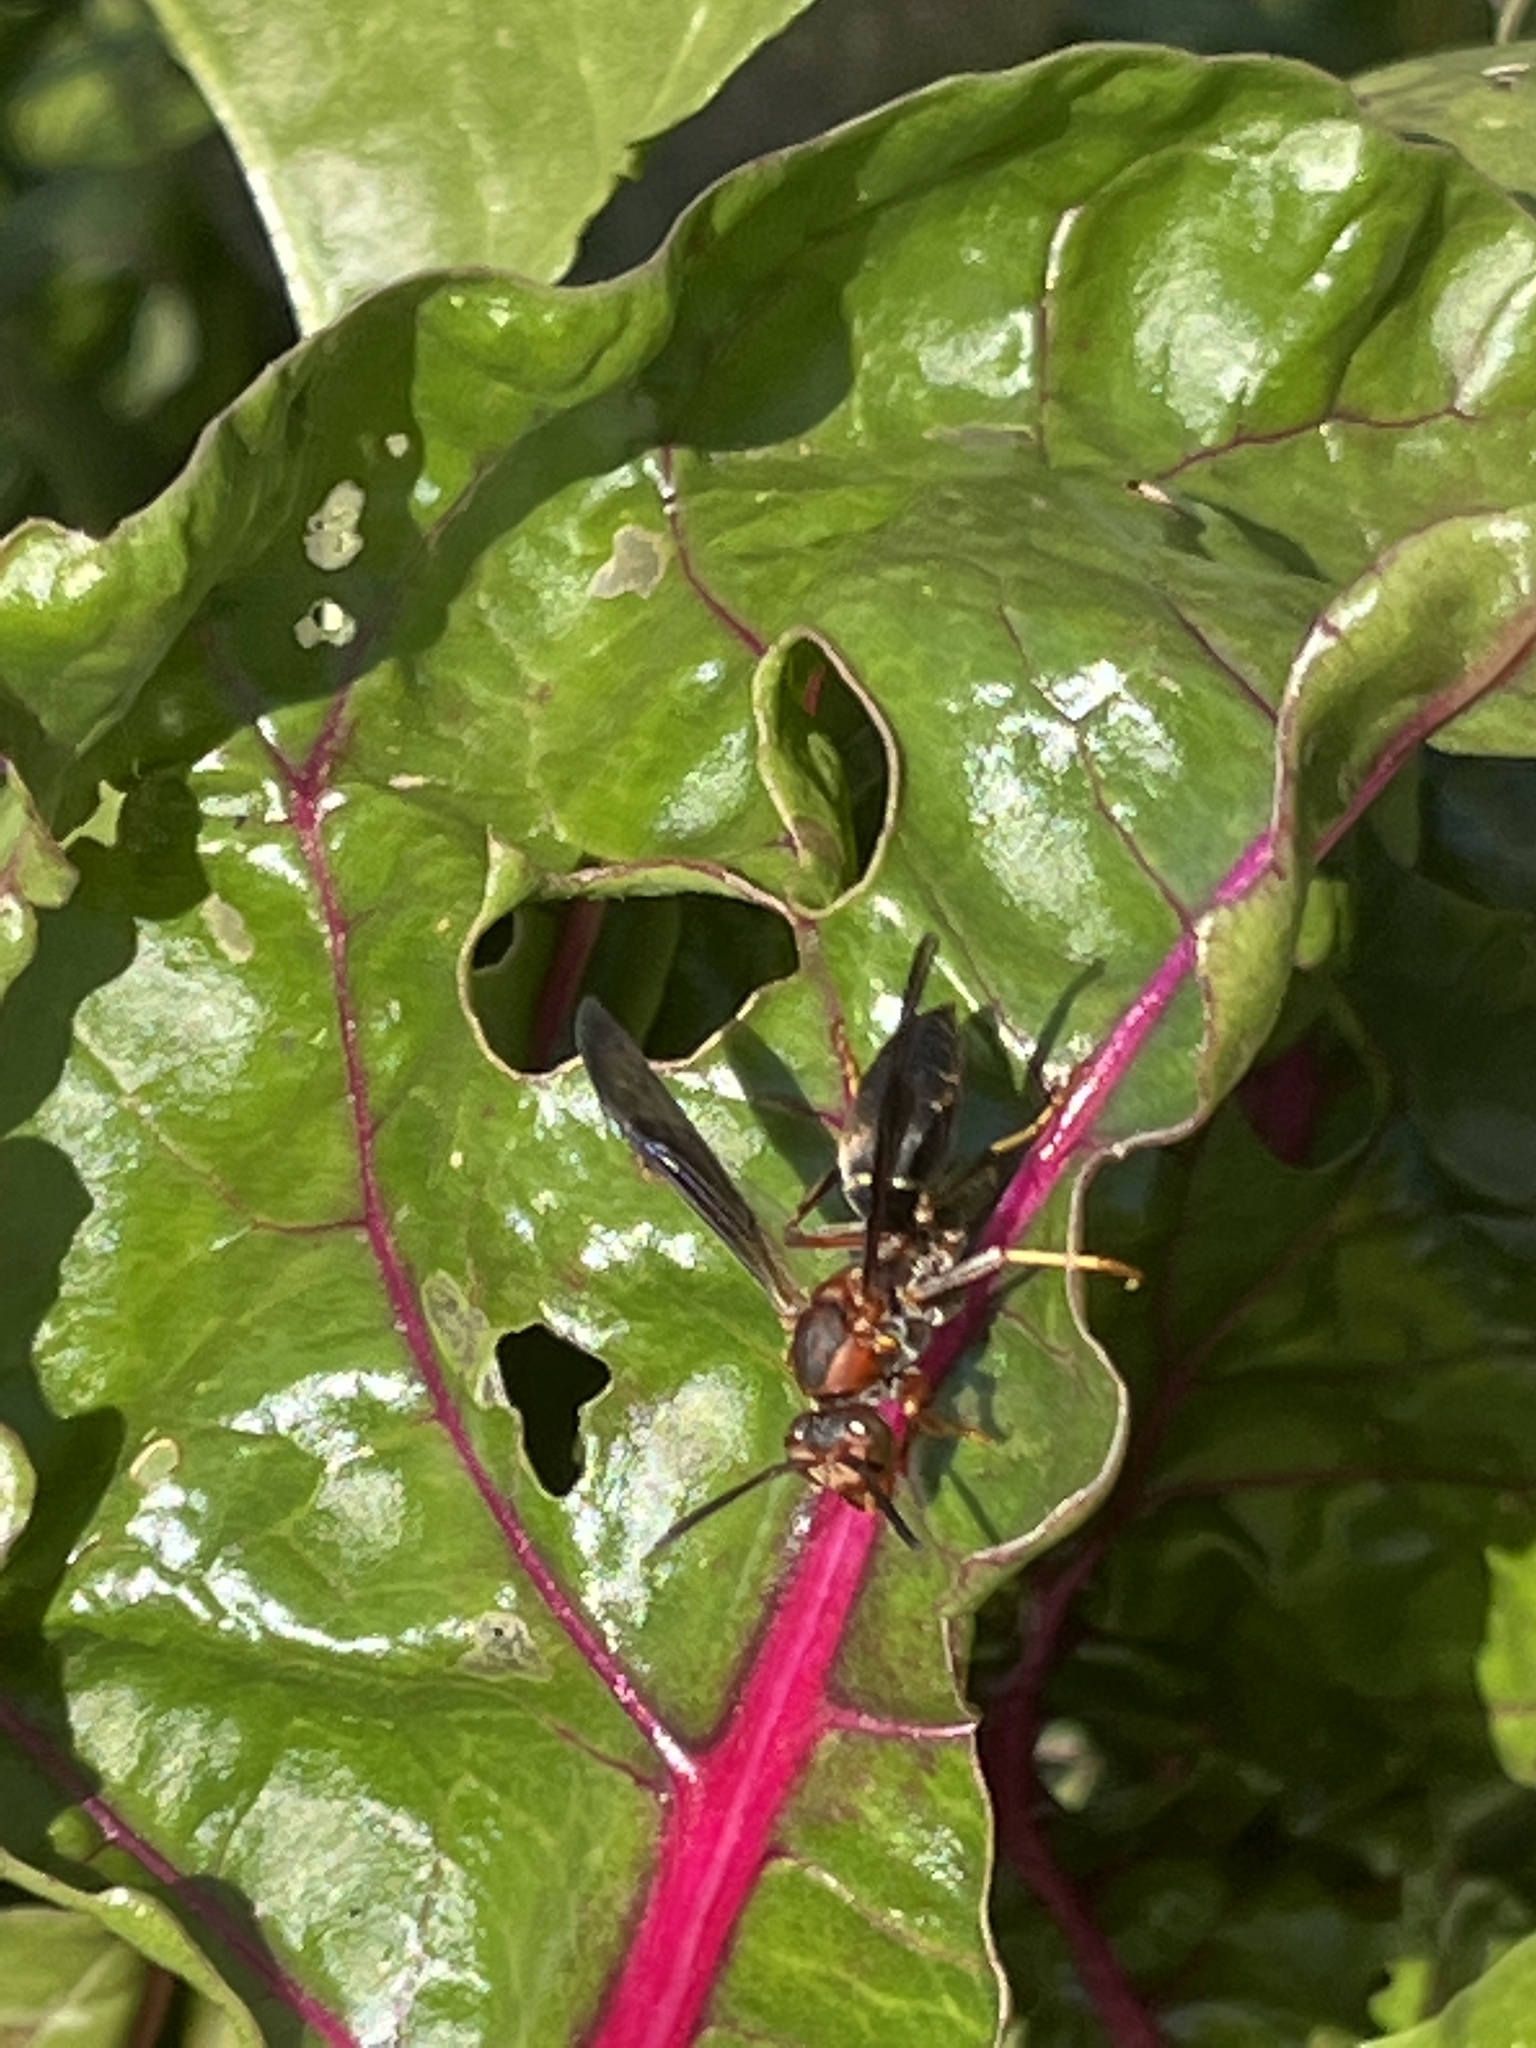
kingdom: Animalia
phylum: Arthropoda
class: Insecta
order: Hymenoptera
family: Eumenidae
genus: Polistes
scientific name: Polistes metricus
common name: Metric paper wasp
